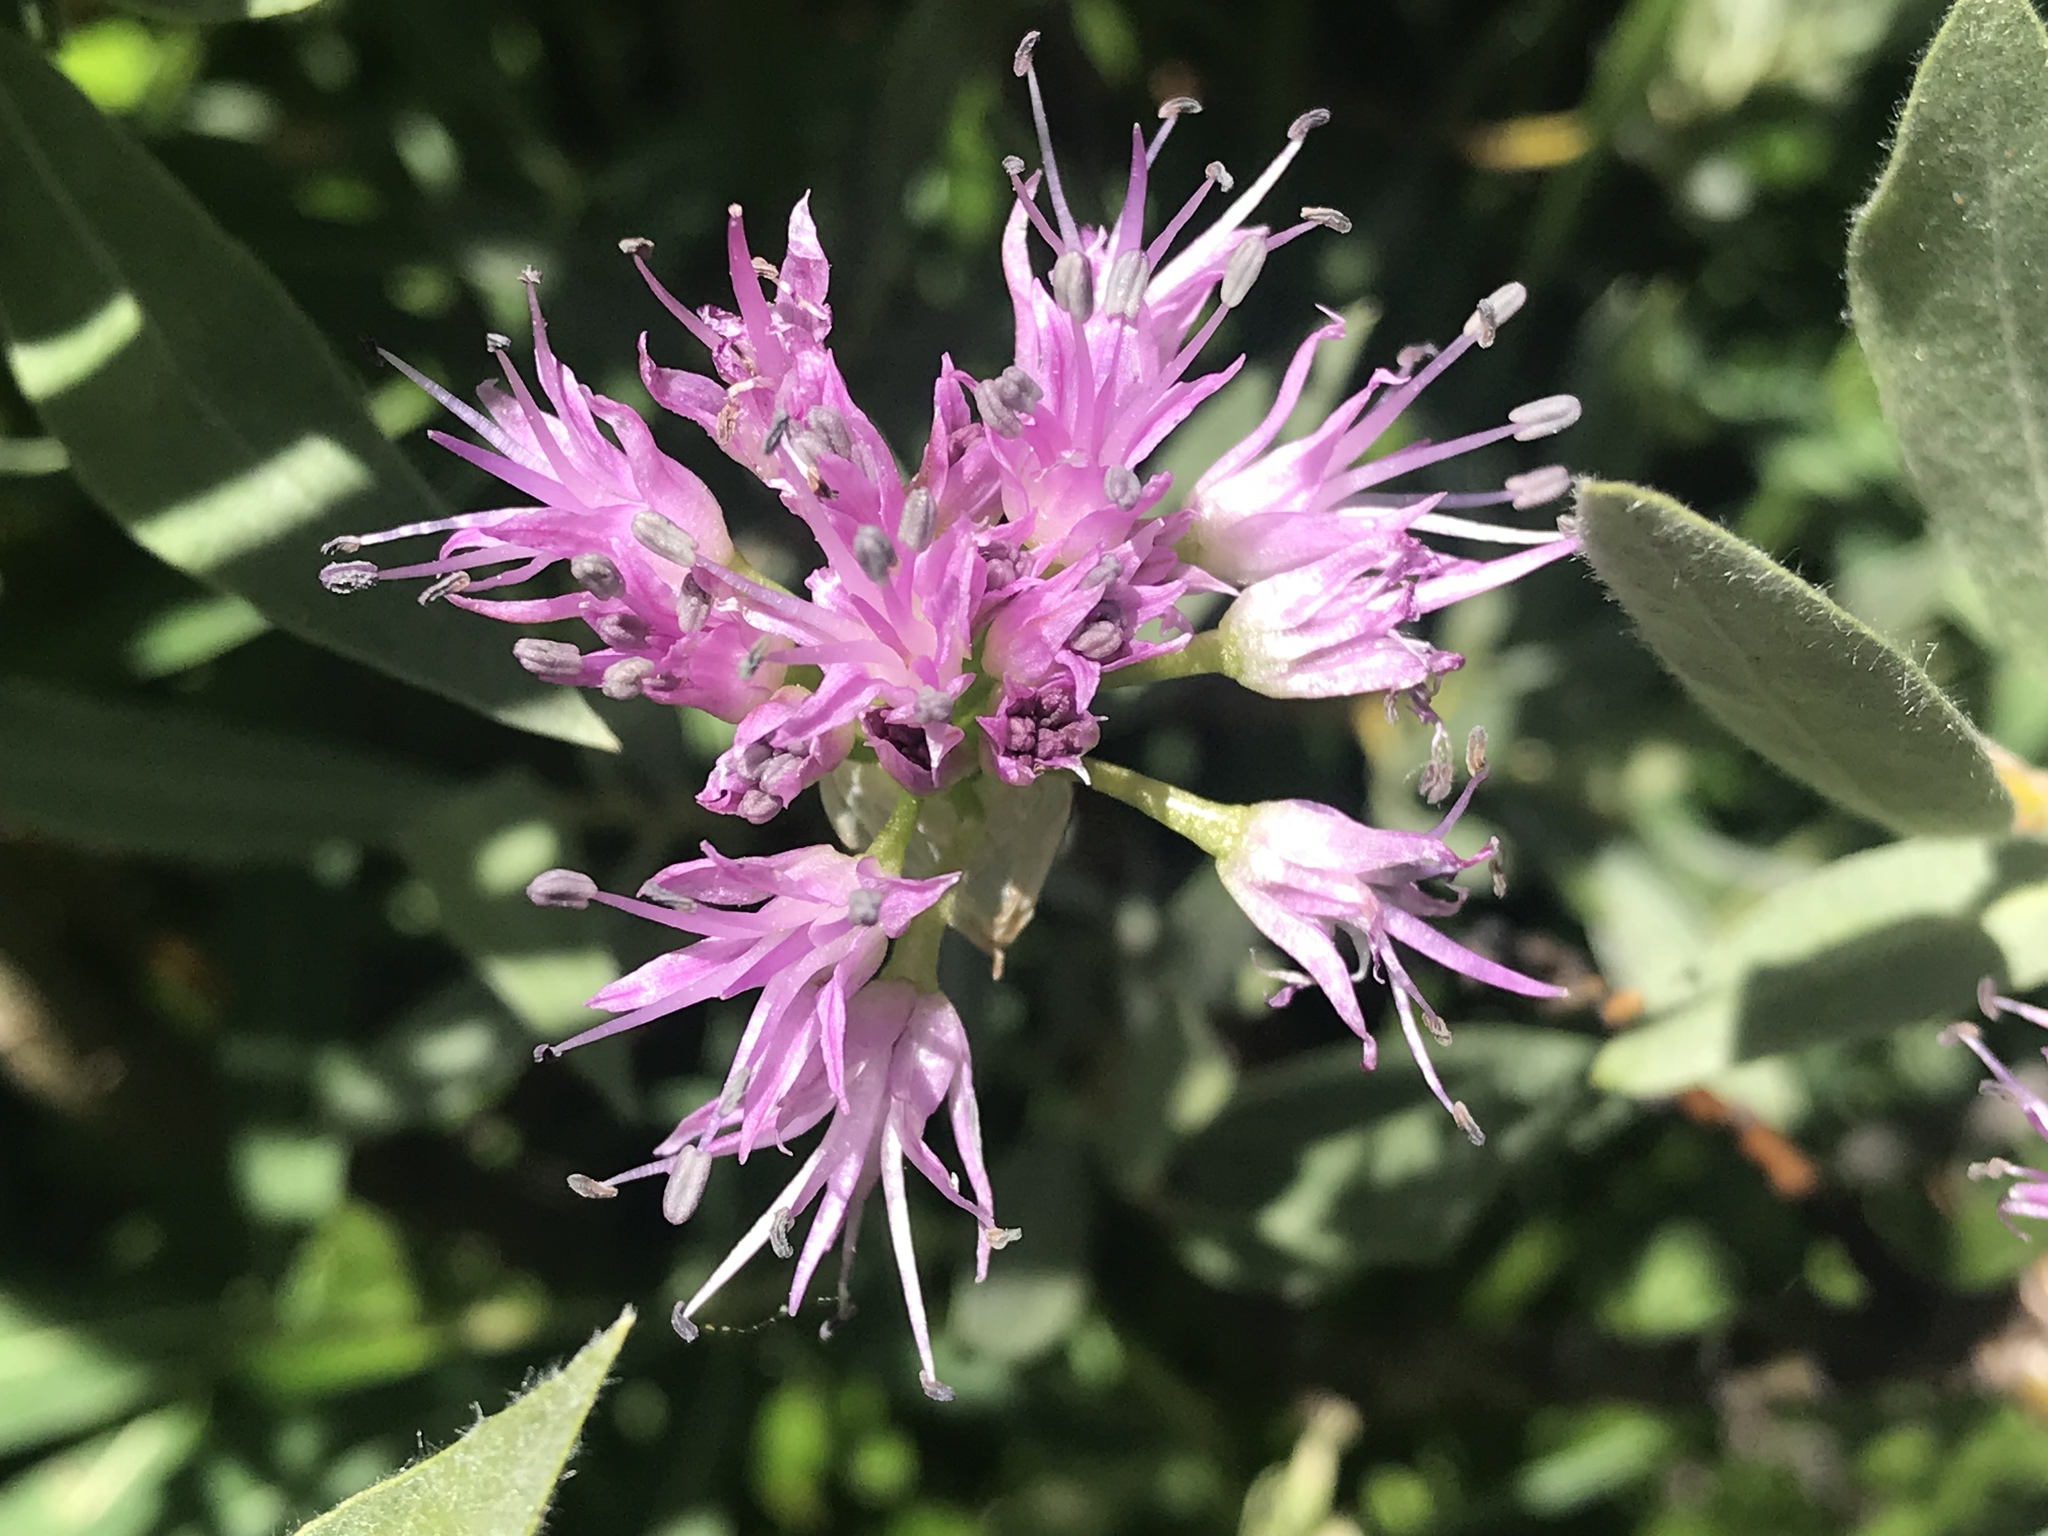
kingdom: Plantae
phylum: Tracheophyta
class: Liliopsida
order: Asparagales
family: Amaryllidaceae
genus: Allium
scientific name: Allium validum
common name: Pacific mountain onion
